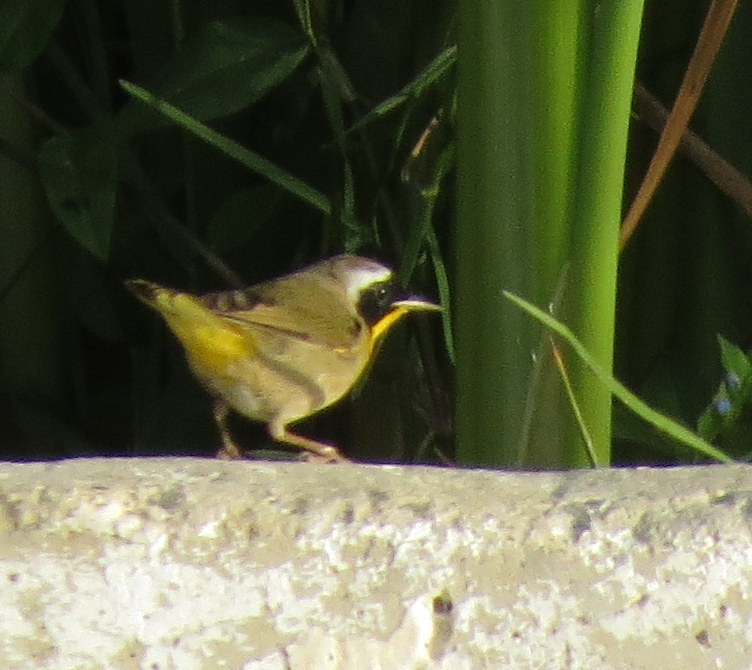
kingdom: Animalia
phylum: Chordata
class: Aves
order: Passeriformes
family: Parulidae
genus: Geothlypis
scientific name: Geothlypis trichas
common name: Common yellowthroat
